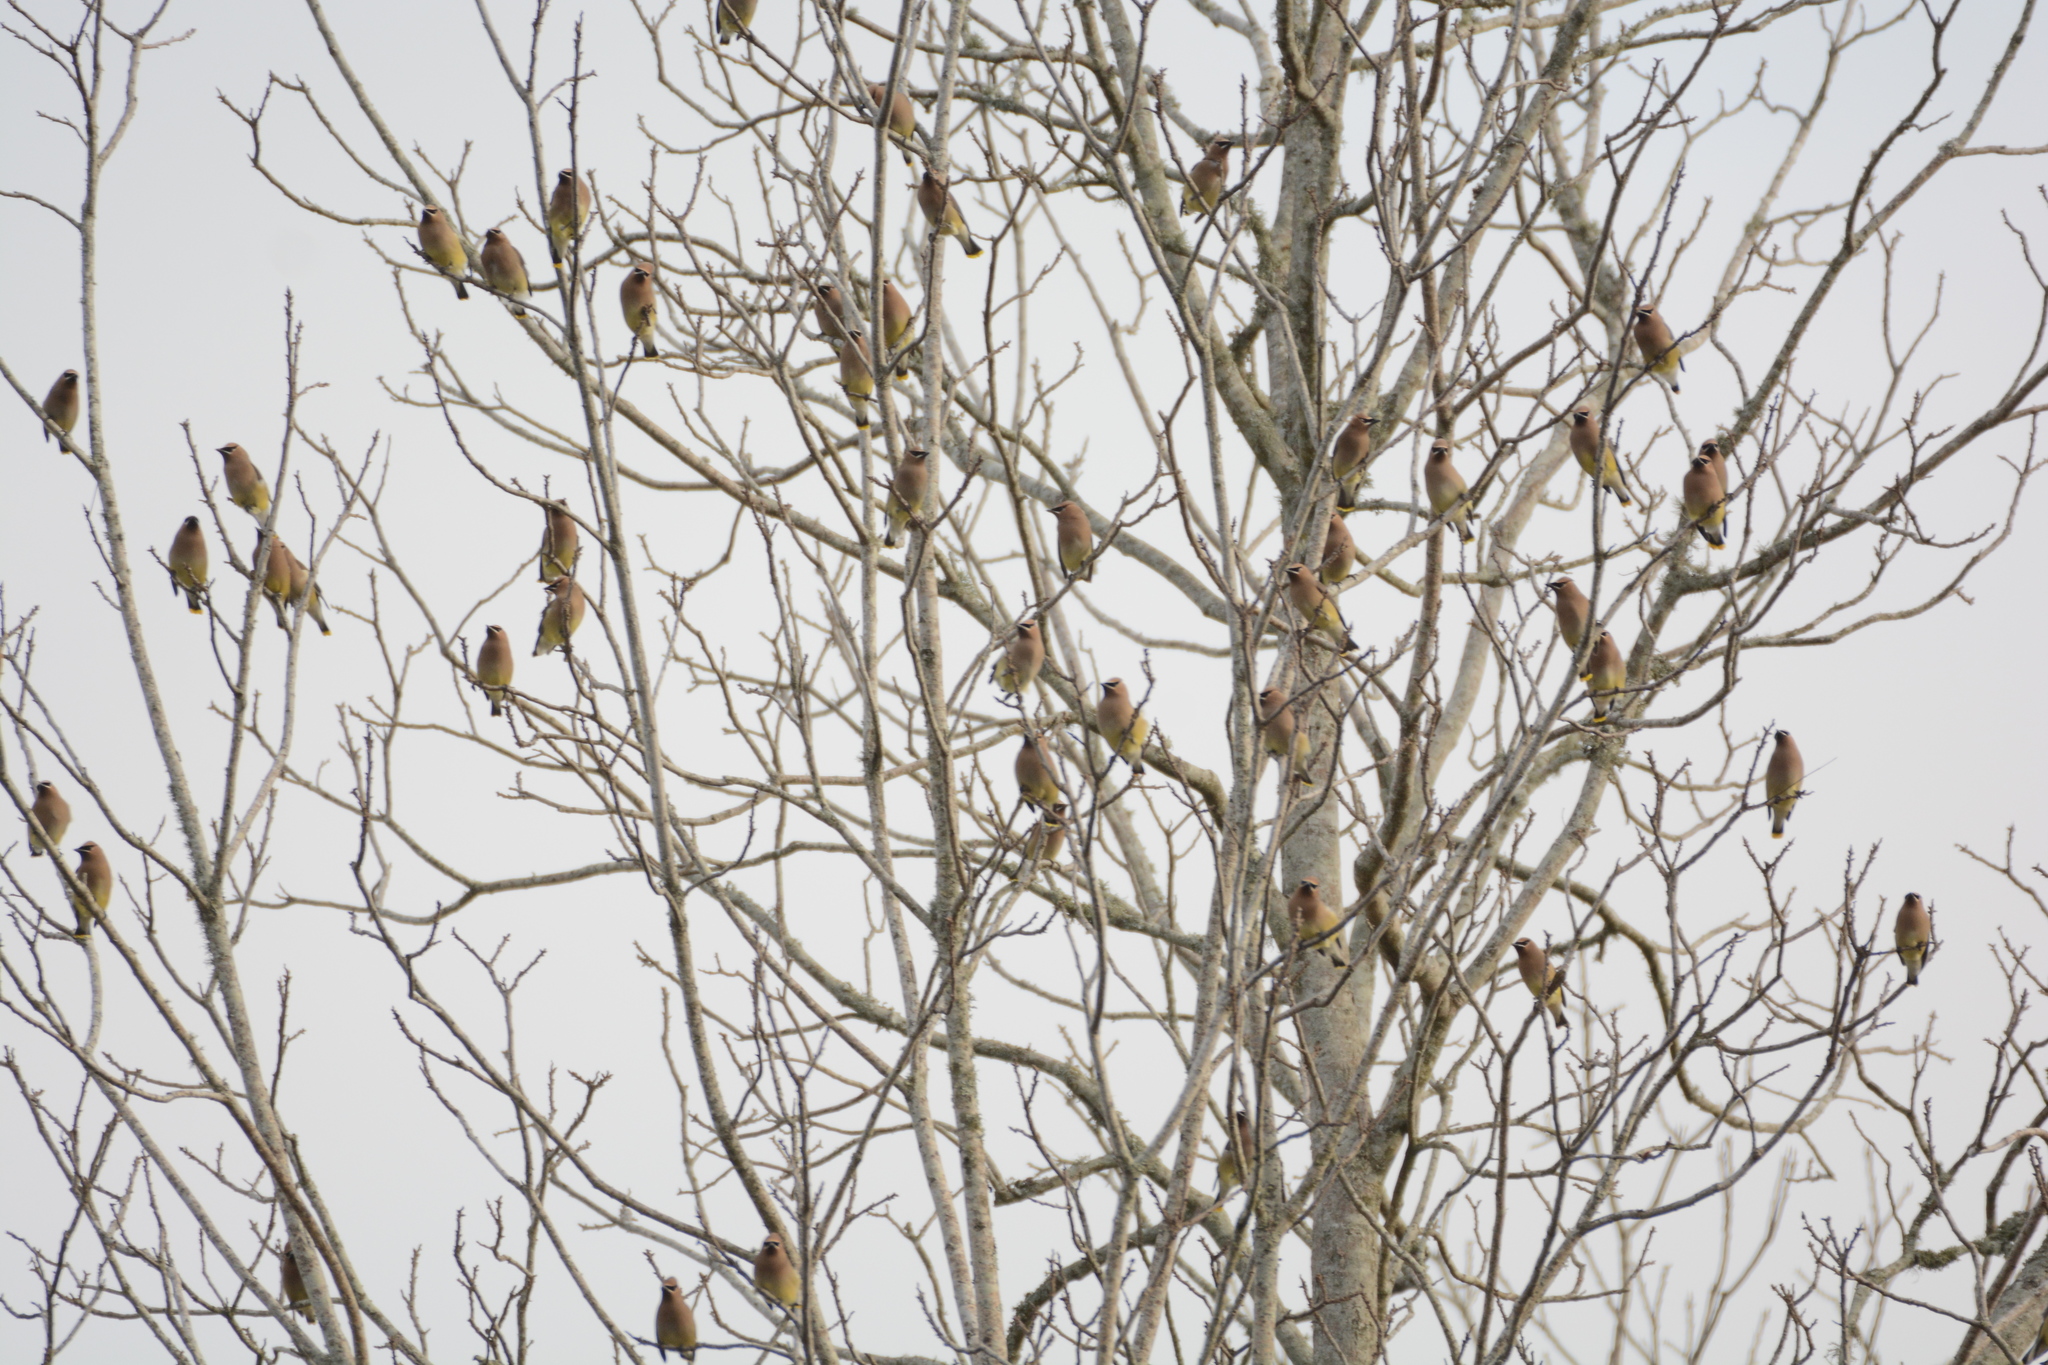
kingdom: Animalia
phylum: Chordata
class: Aves
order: Passeriformes
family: Bombycillidae
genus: Bombycilla
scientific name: Bombycilla cedrorum
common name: Cedar waxwing
